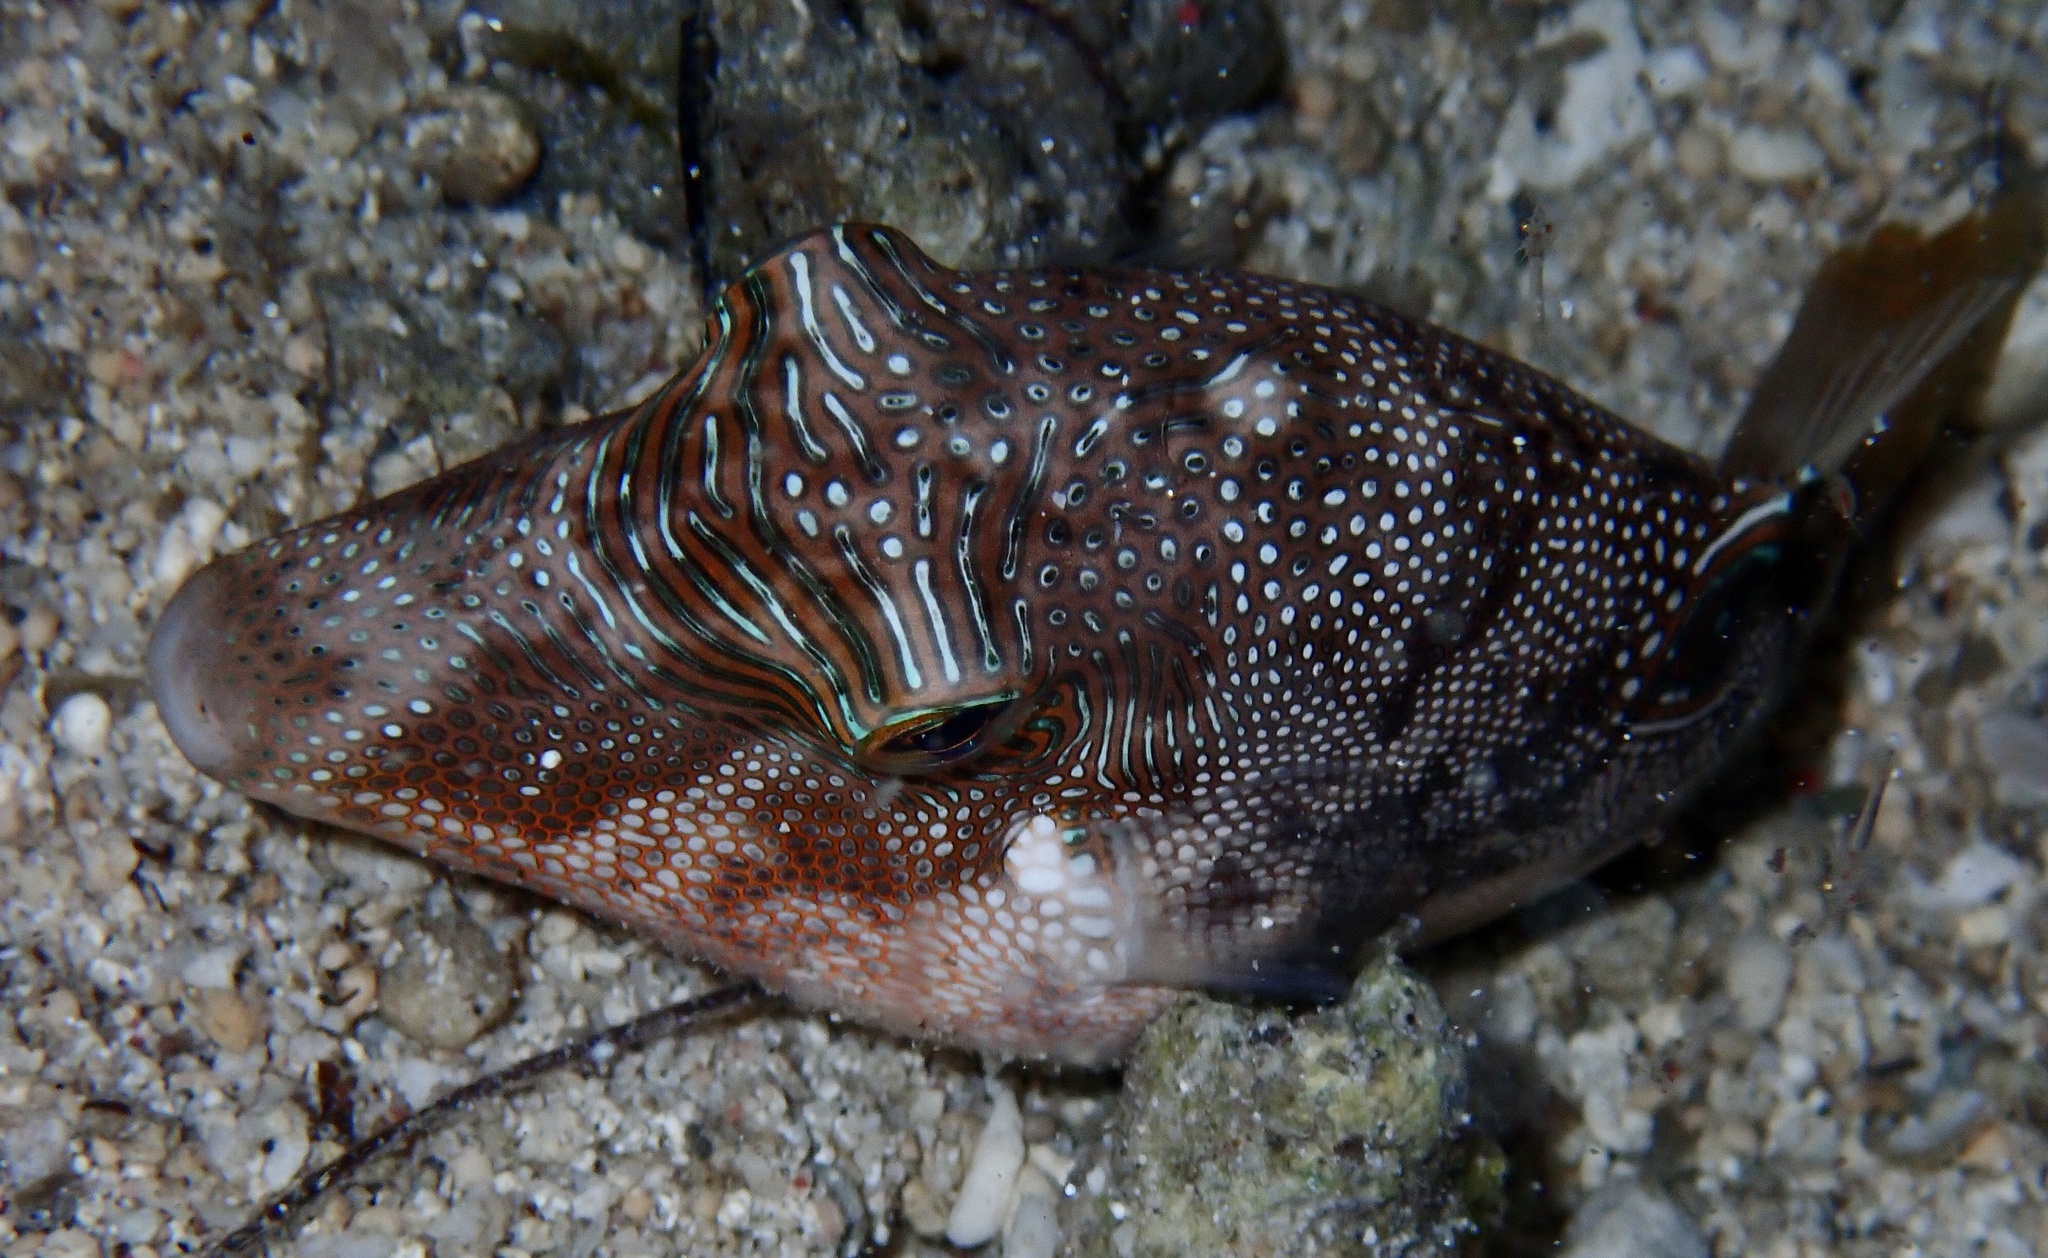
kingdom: Animalia
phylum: Chordata
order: Tetraodontiformes
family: Tetraodontidae
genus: Canthigaster
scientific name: Canthigaster compressa
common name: Compressed toby
